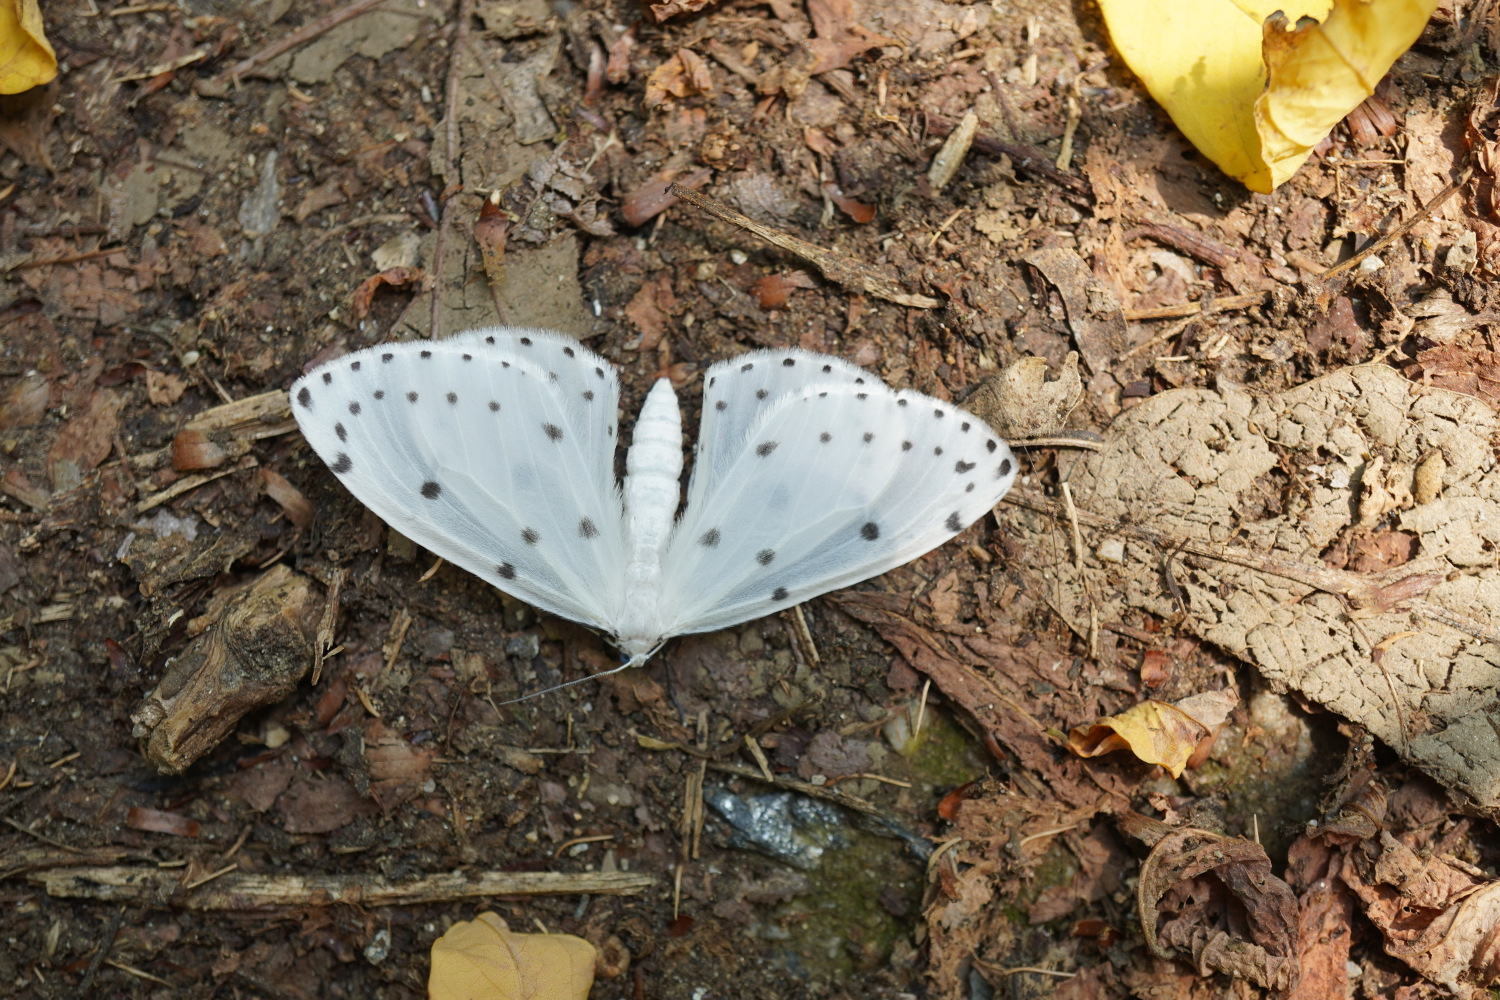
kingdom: Animalia
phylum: Arthropoda
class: Insecta
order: Lepidoptera
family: Geometridae
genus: Naxa
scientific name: Naxa seriaria
